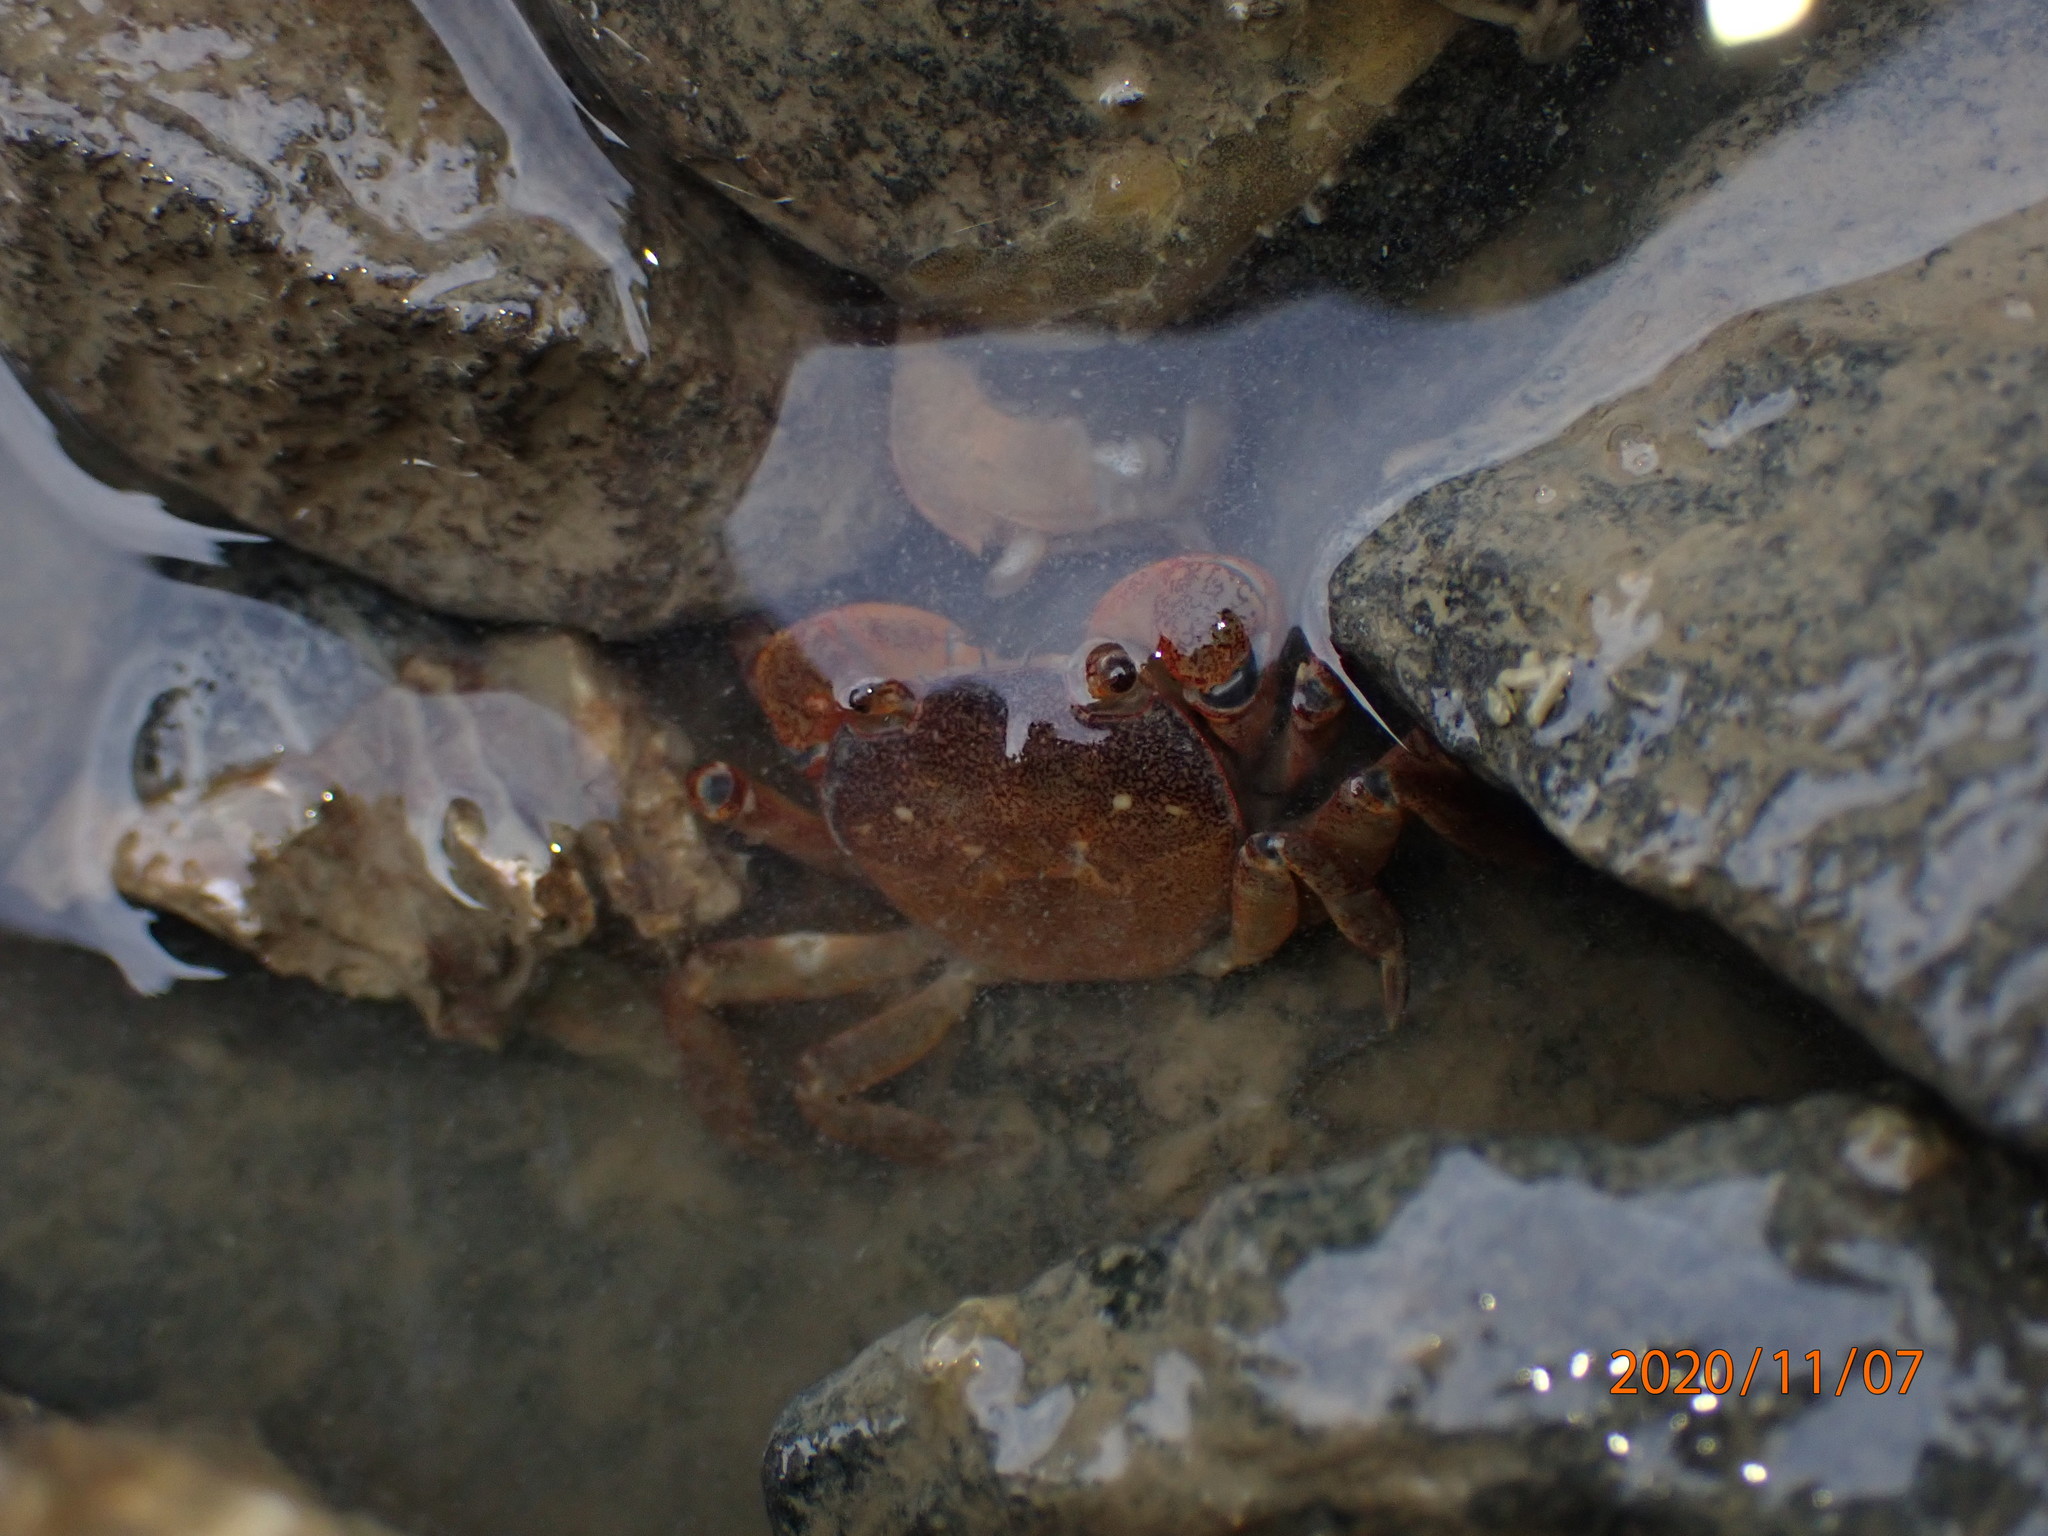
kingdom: Animalia
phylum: Arthropoda
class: Malacostraca
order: Decapoda
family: Varunidae
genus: Cyclograpsus
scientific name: Cyclograpsus lavauxi
